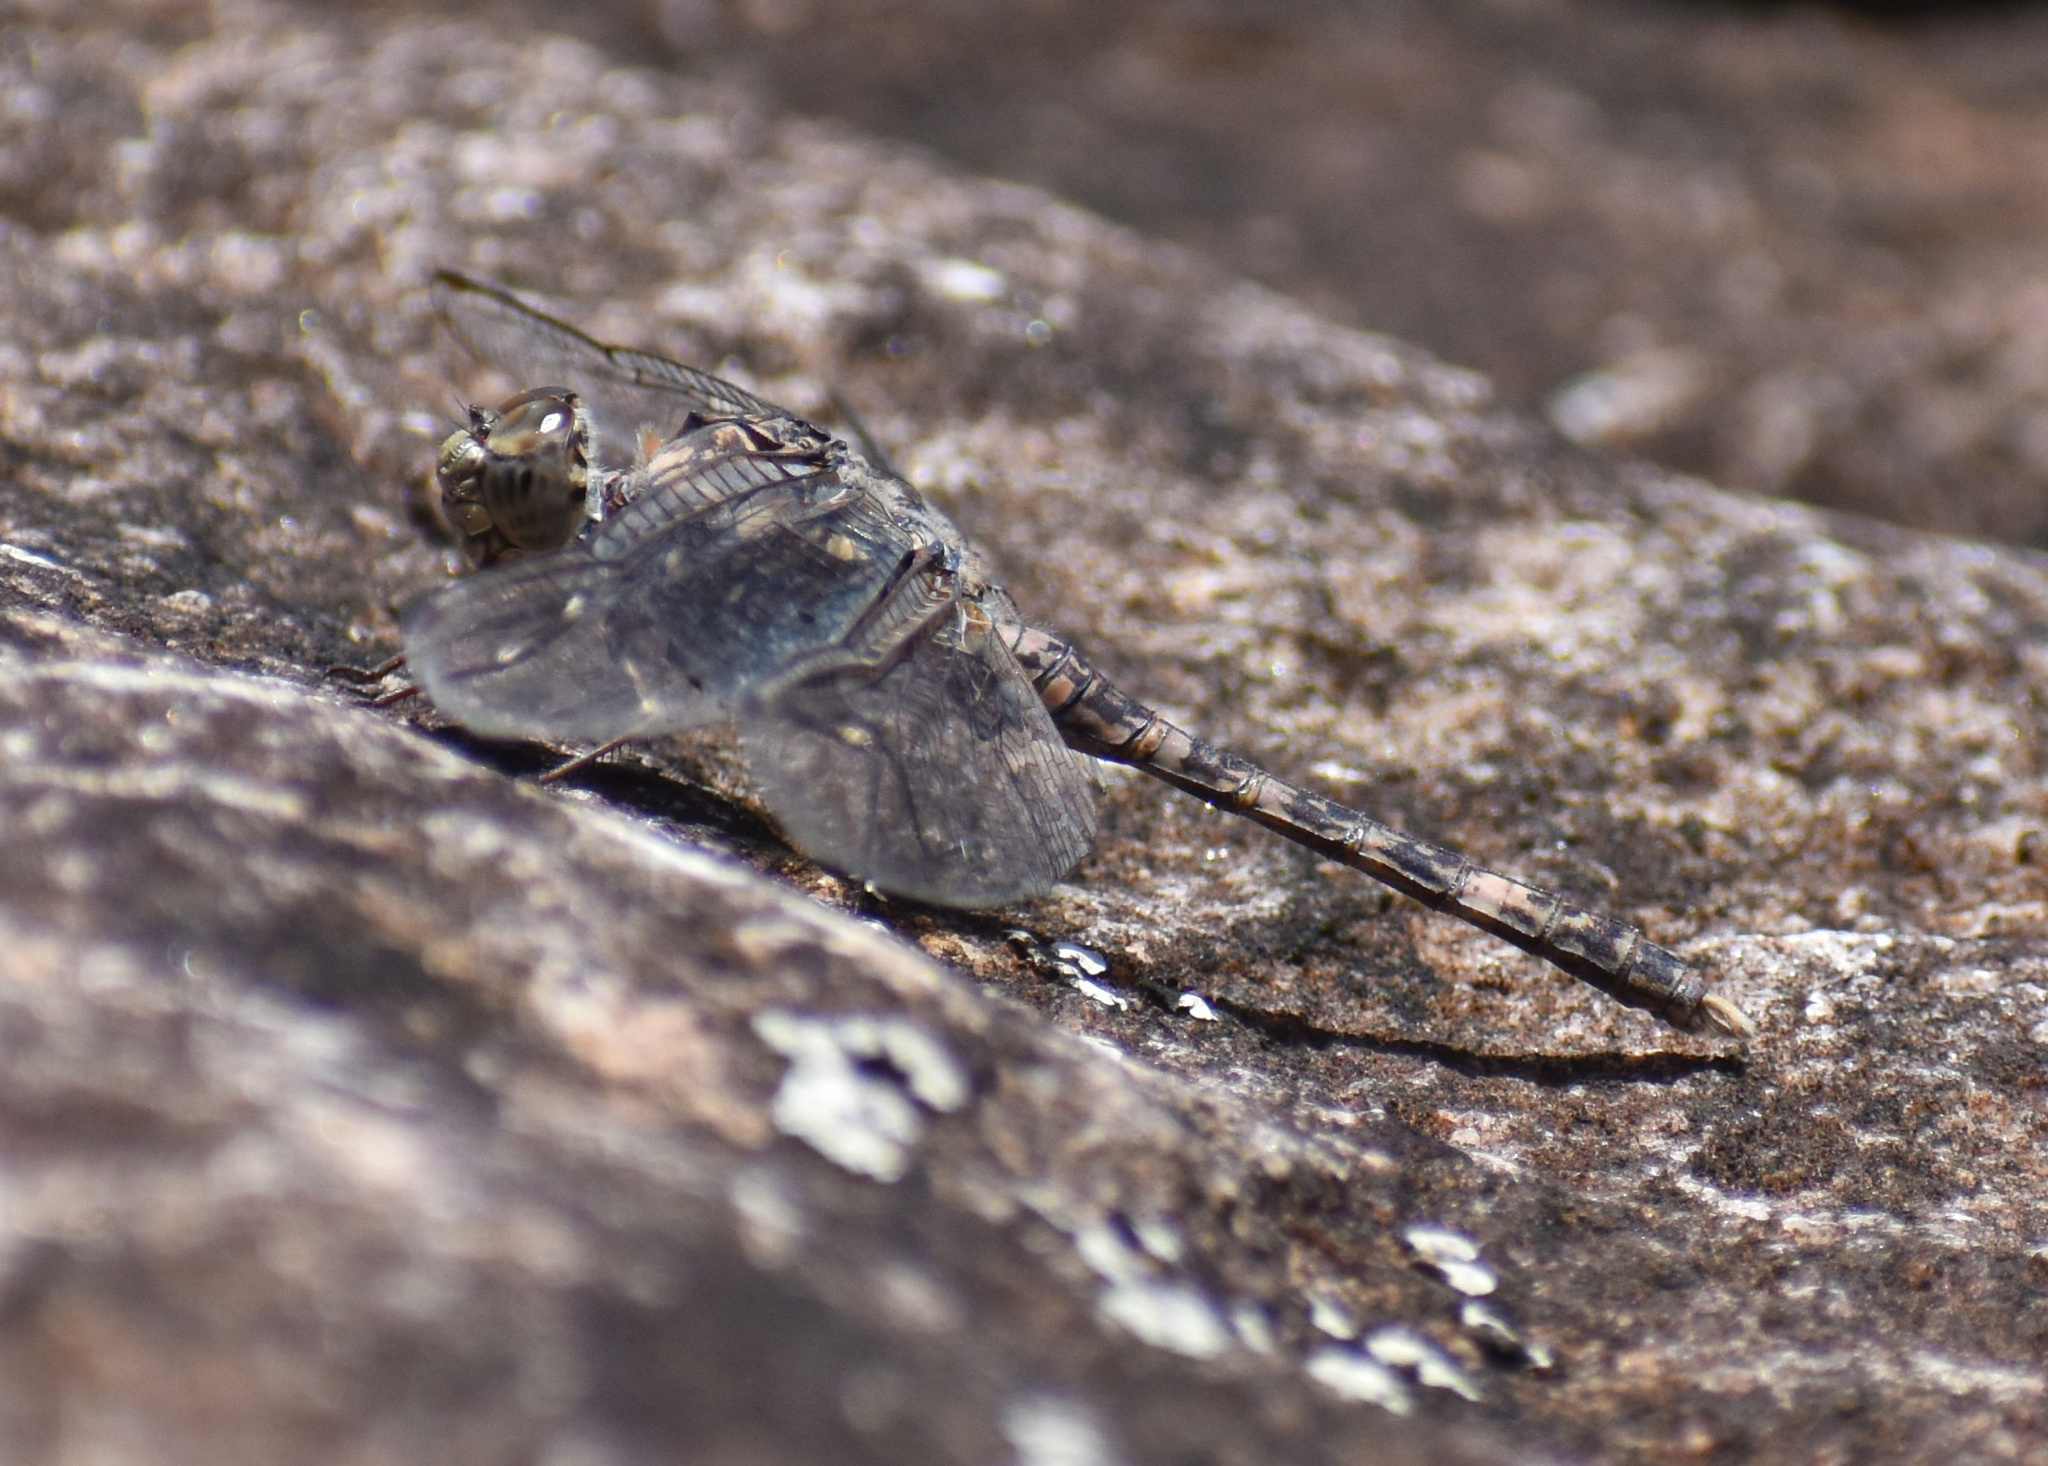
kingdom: Animalia
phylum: Arthropoda
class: Insecta
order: Odonata
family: Libellulidae
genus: Bradinopyga
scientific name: Bradinopyga cornuta
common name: Flecked wall-skimmer
